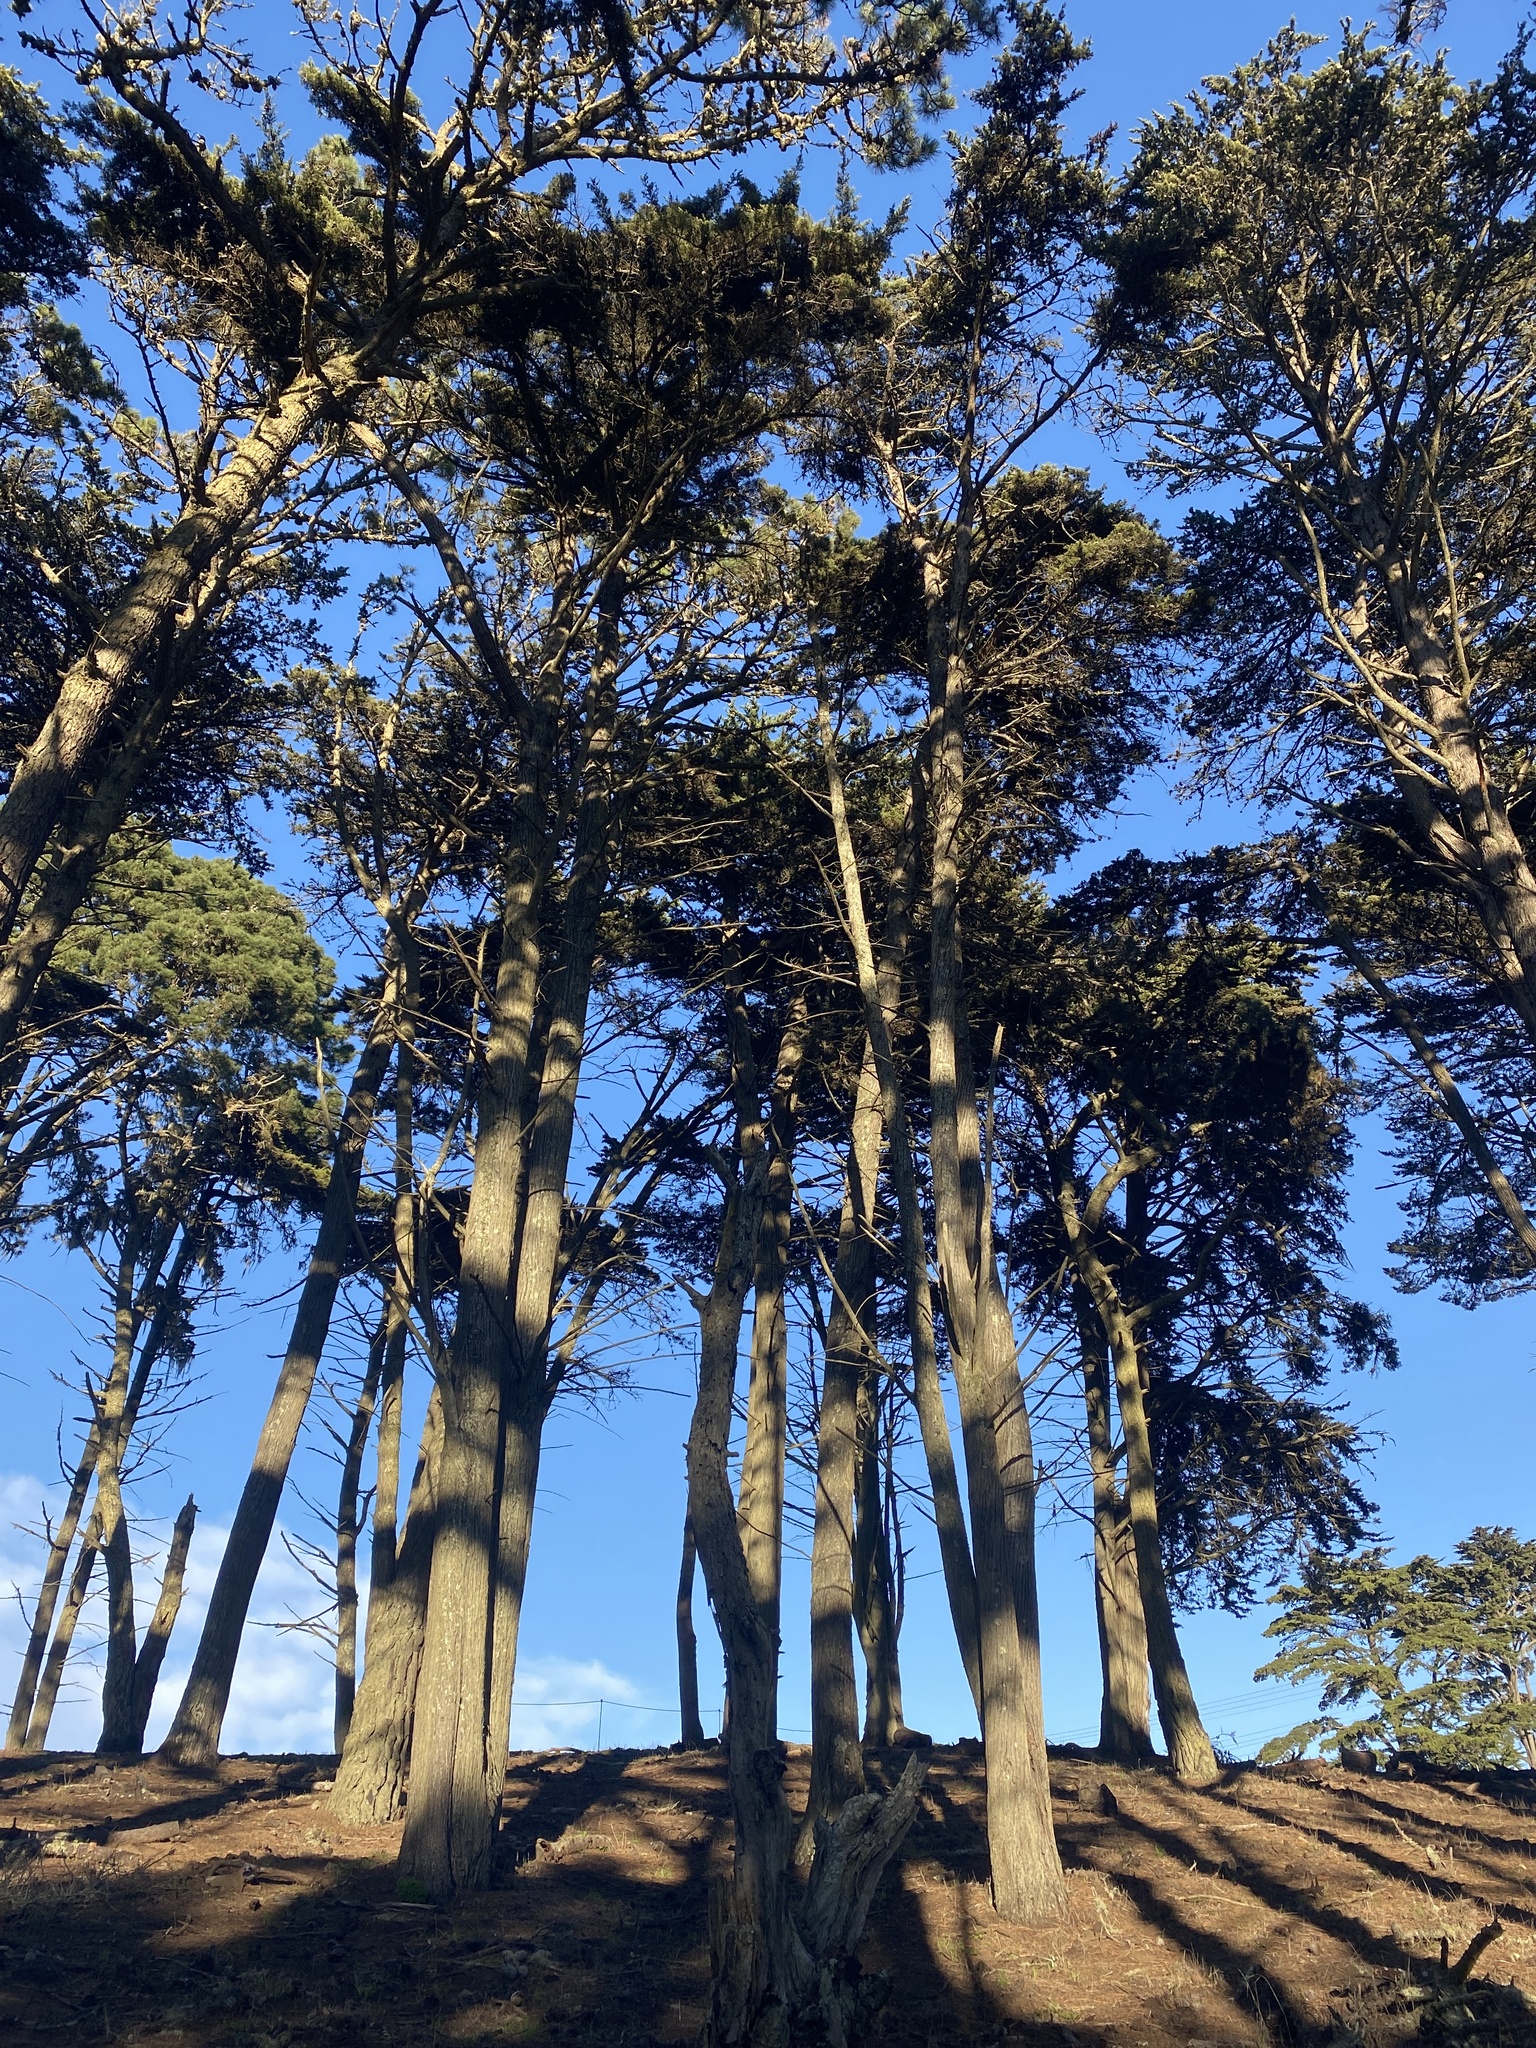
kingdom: Plantae
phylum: Tracheophyta
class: Pinopsida
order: Pinales
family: Pinaceae
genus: Pinus
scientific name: Pinus radiata
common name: Monterey pine
